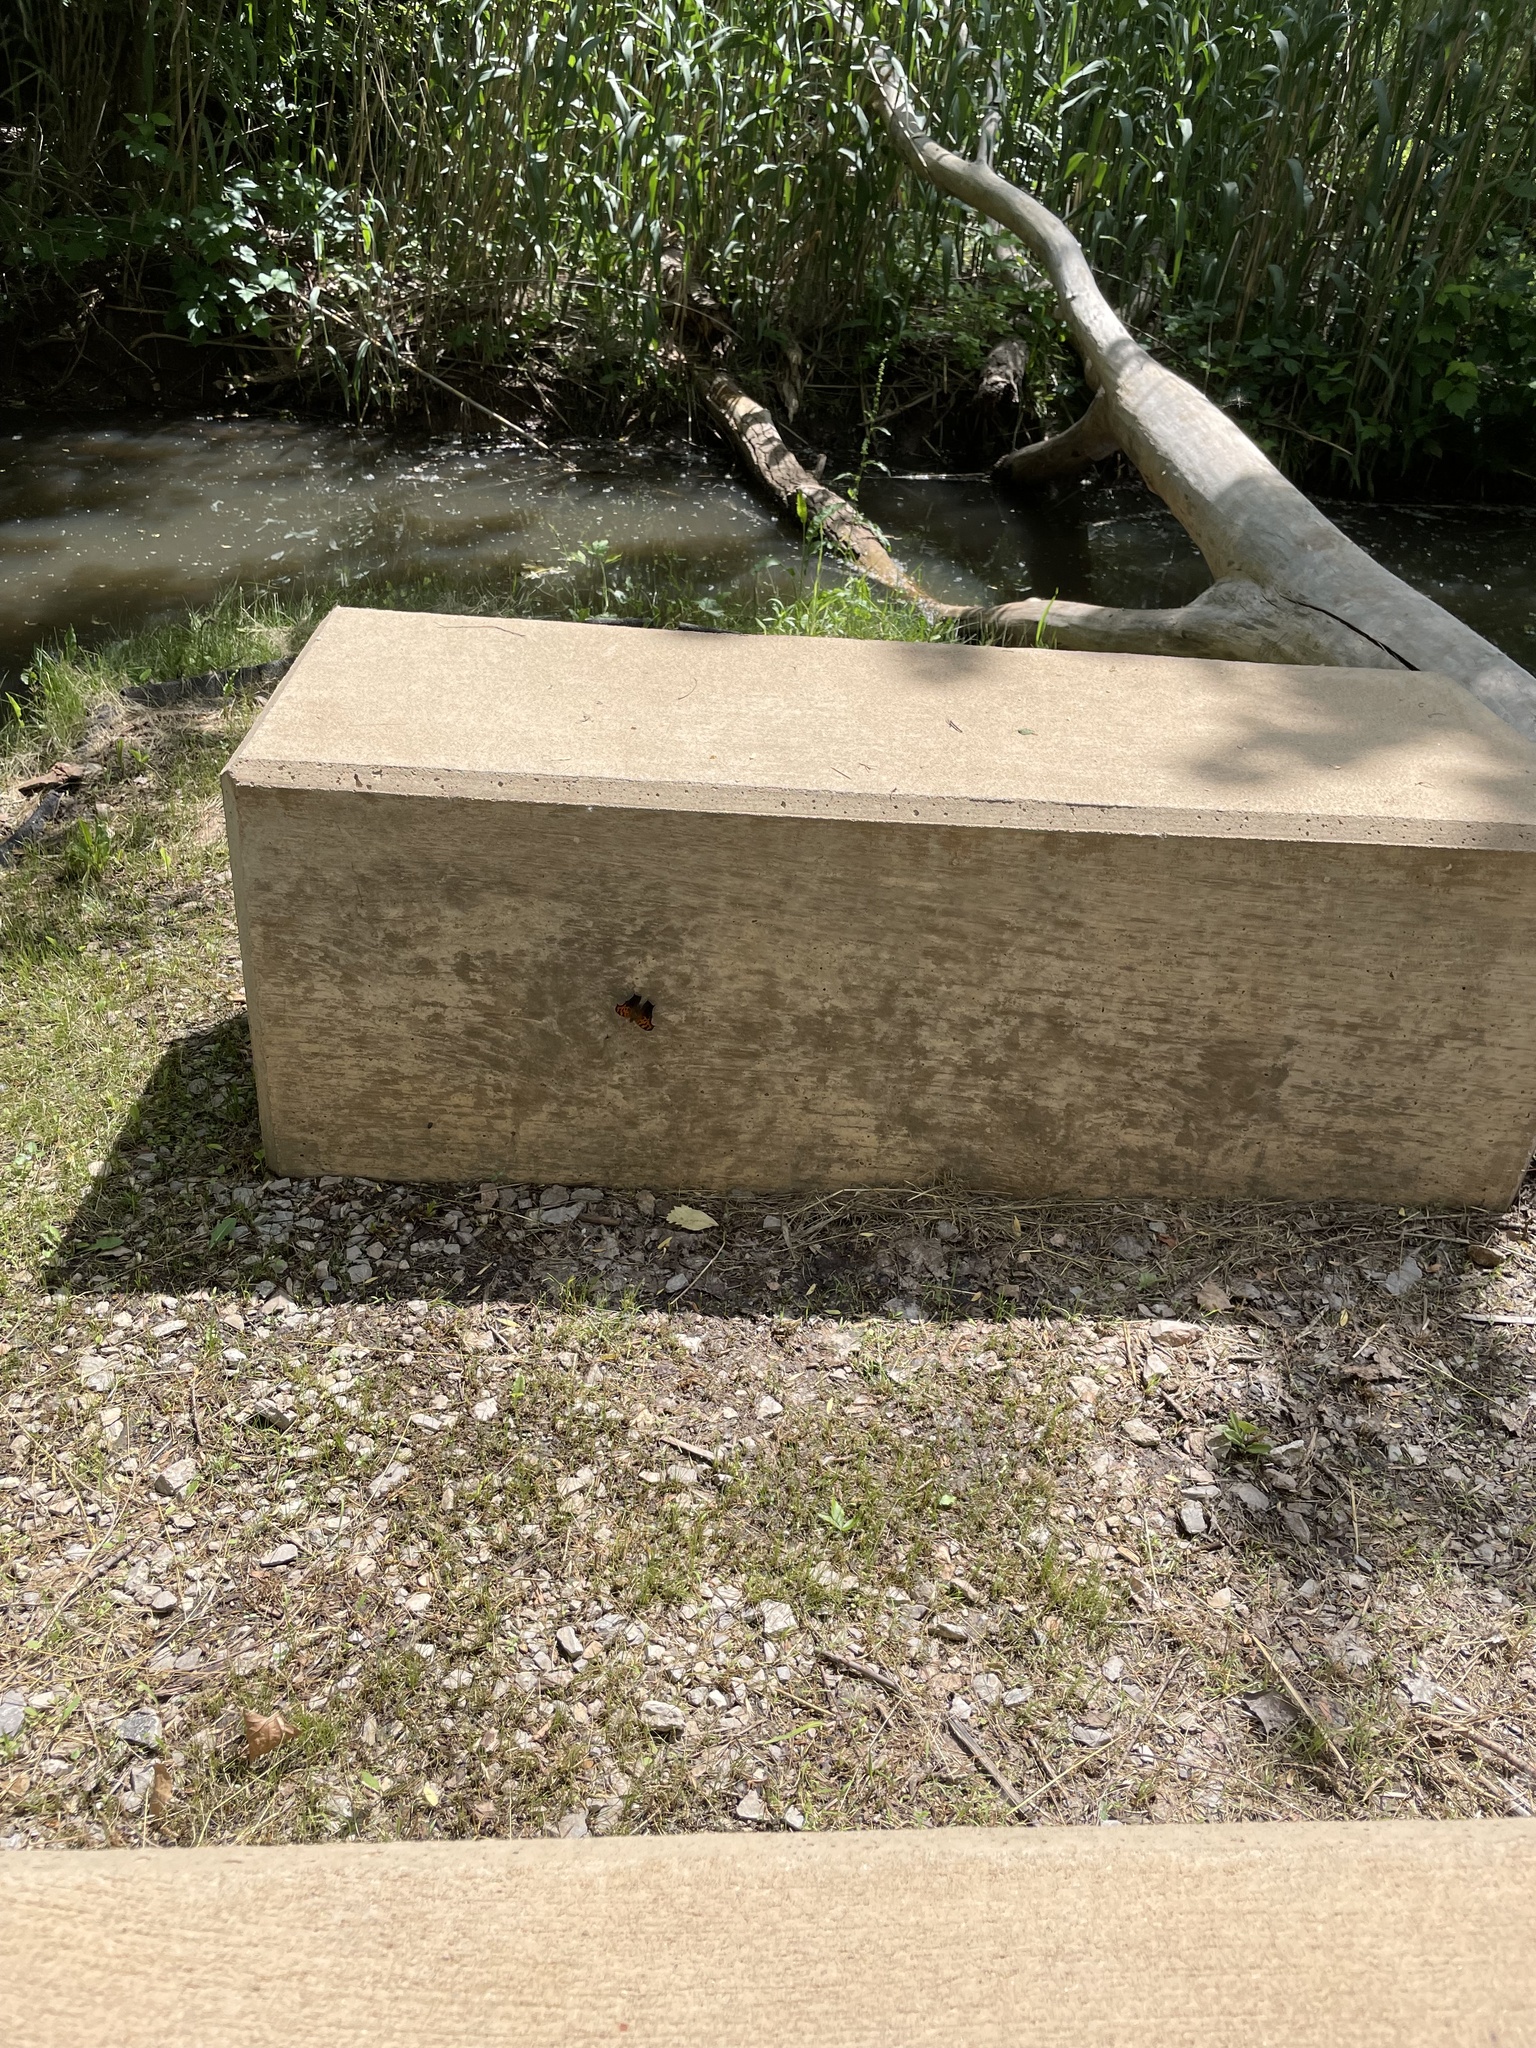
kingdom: Animalia
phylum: Arthropoda
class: Insecta
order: Lepidoptera
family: Nymphalidae
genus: Polygonia
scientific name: Polygonia interrogationis
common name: Question mark
